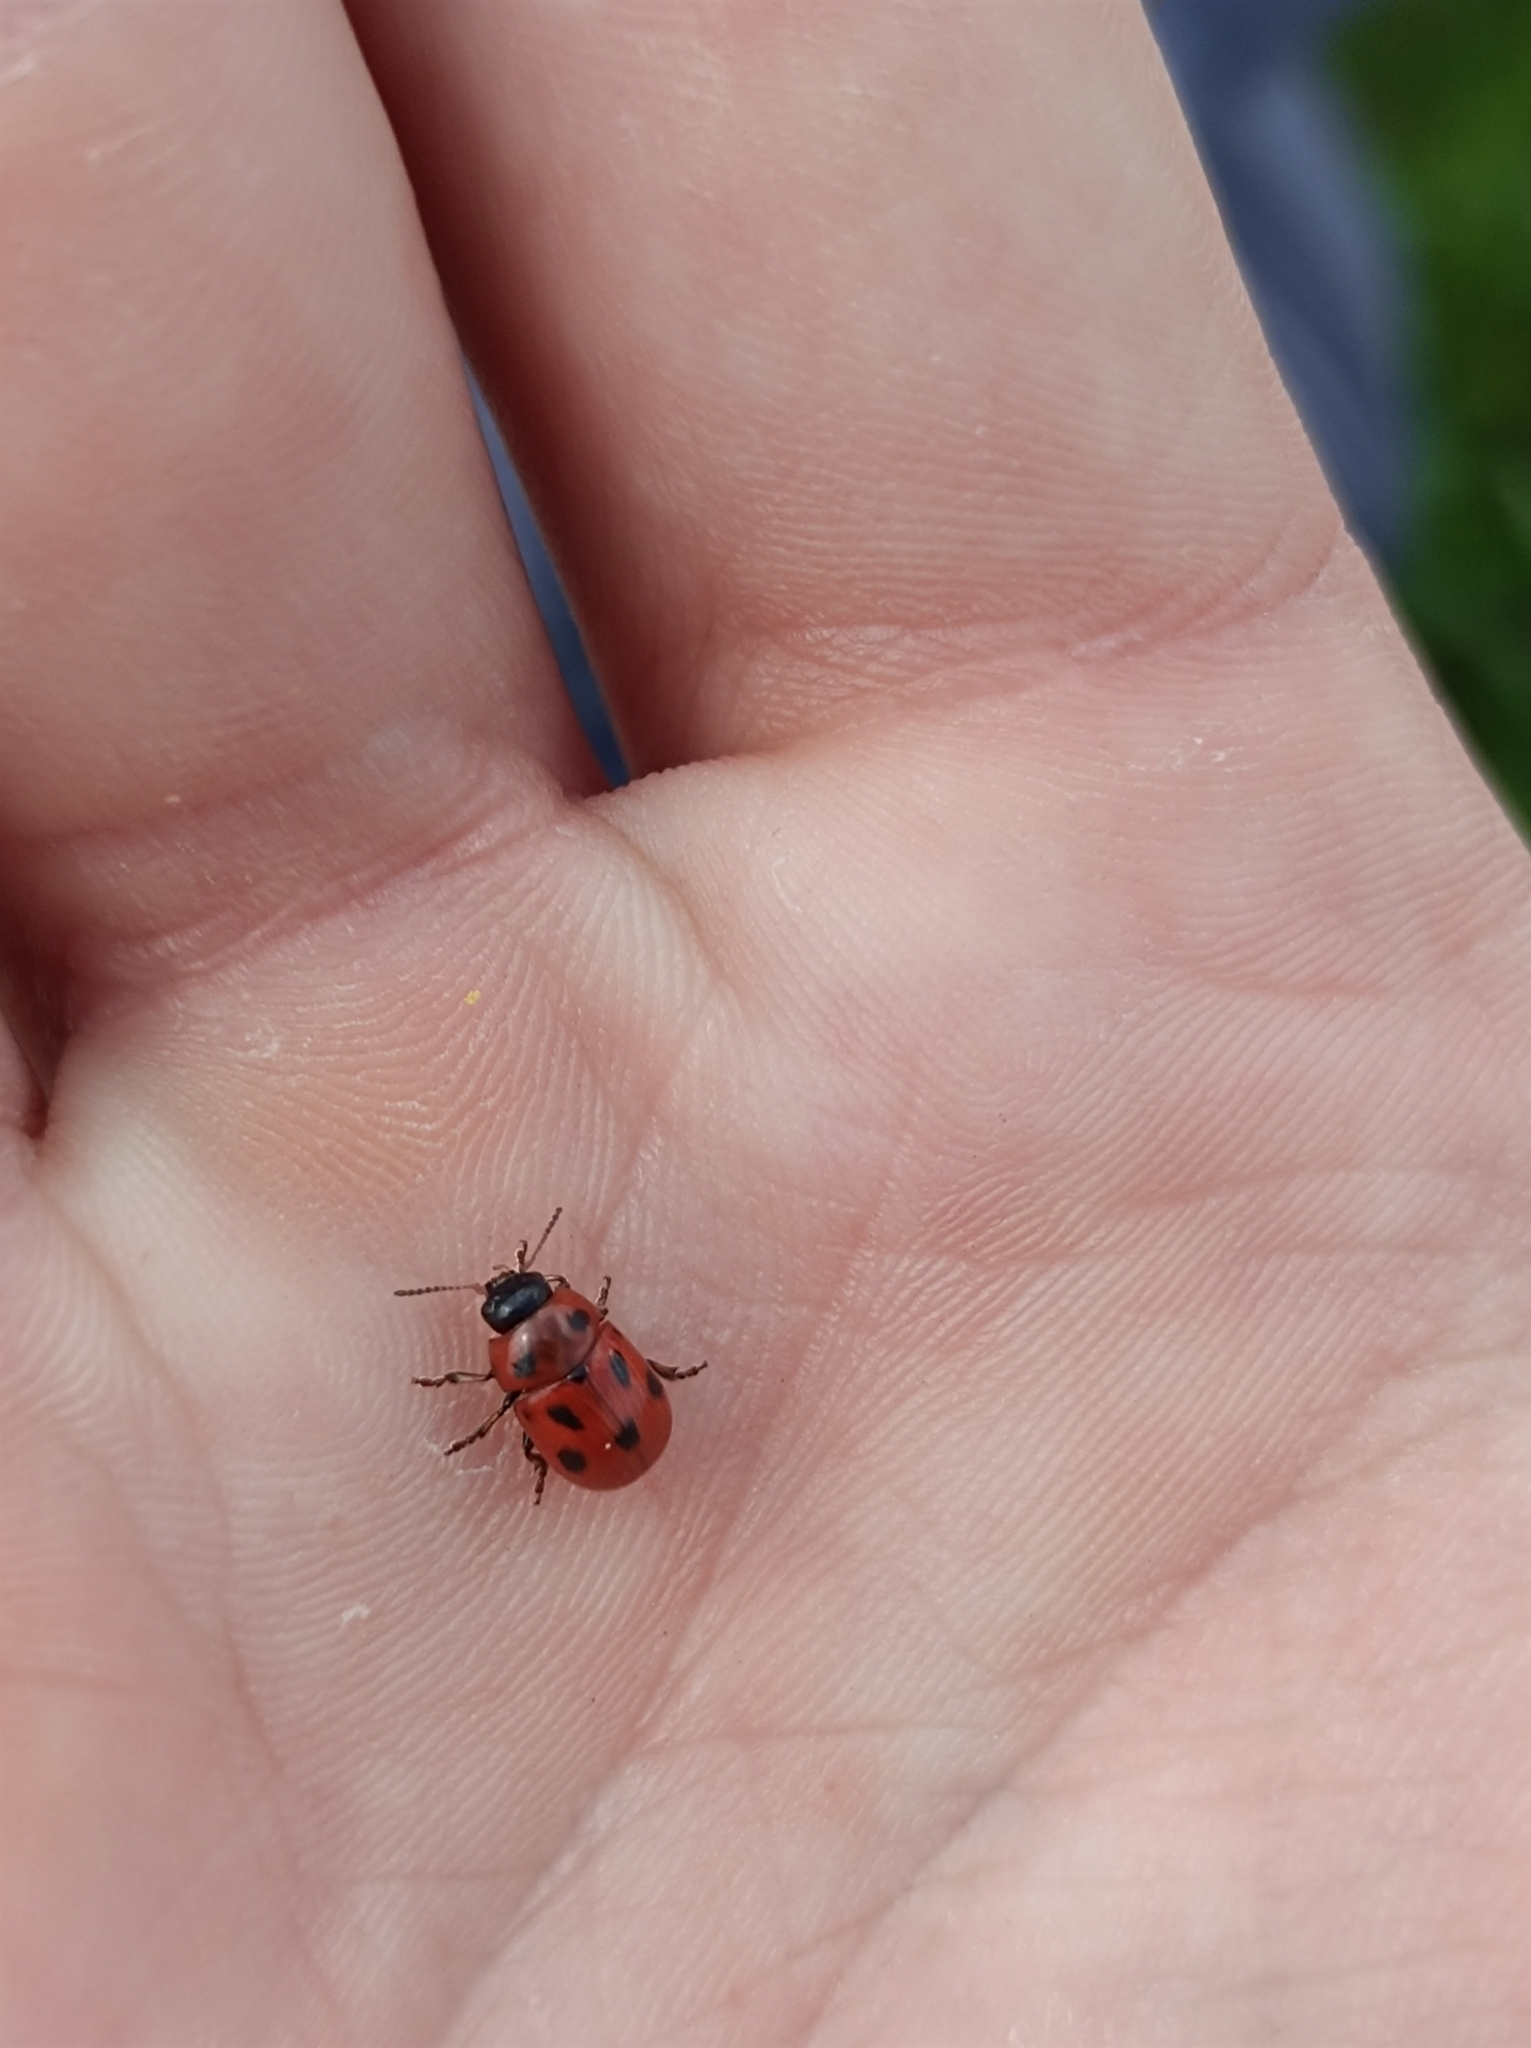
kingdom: Animalia
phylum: Arthropoda
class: Insecta
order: Coleoptera
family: Chrysomelidae
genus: Gonioctena
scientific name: Gonioctena fornicata
